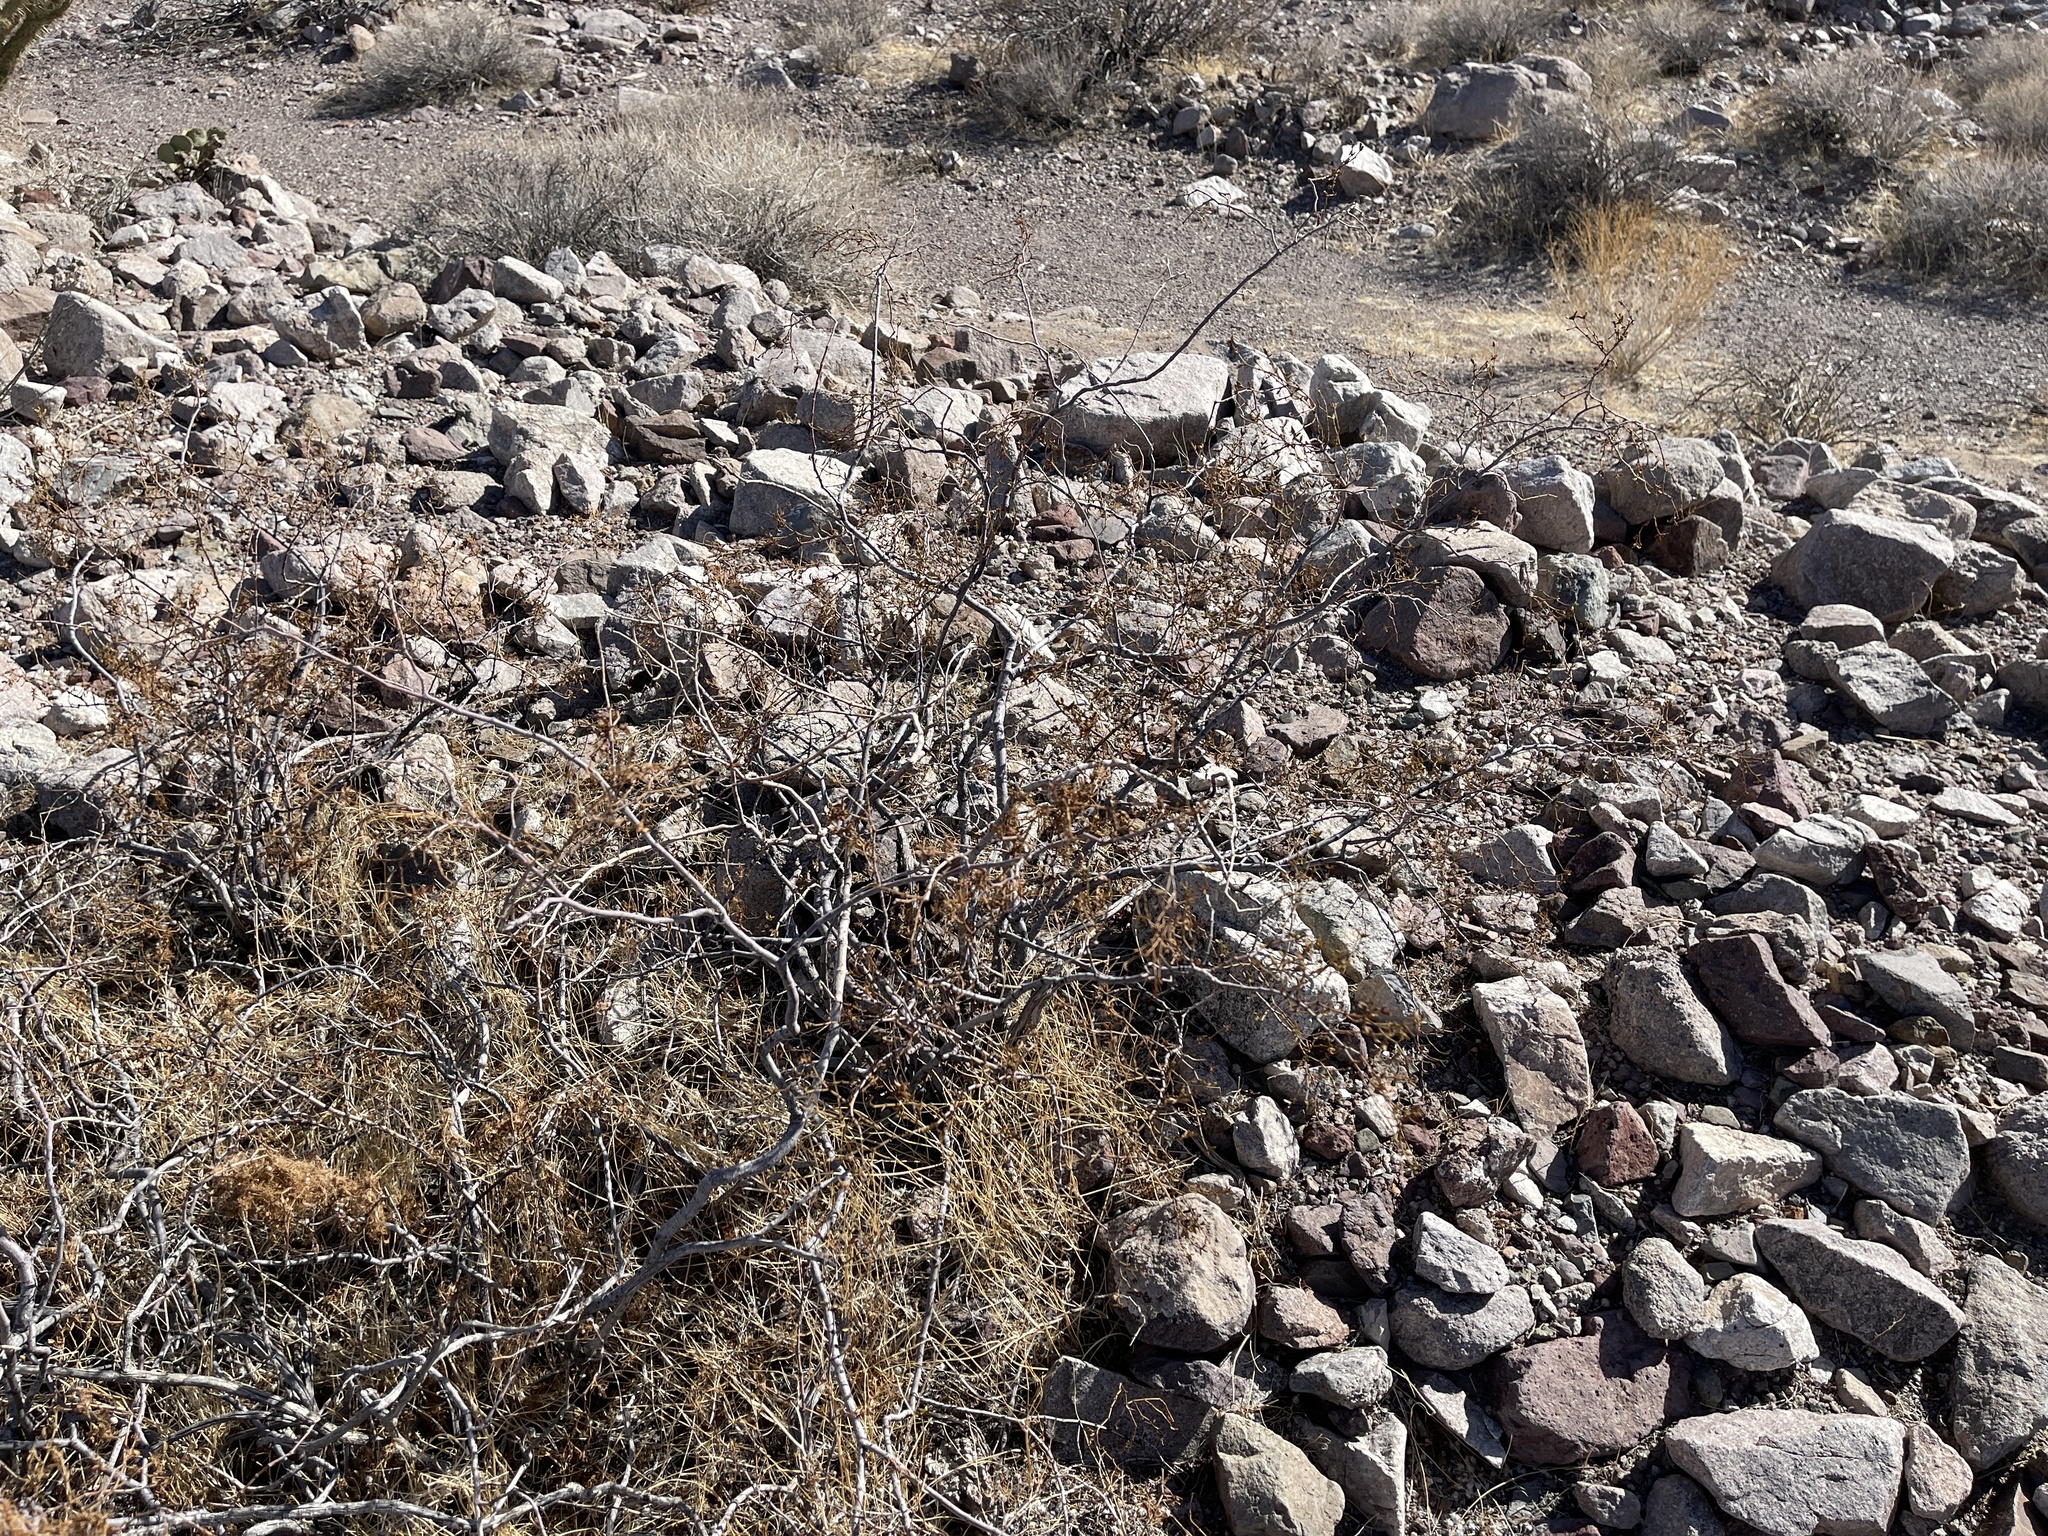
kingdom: Plantae
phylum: Tracheophyta
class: Magnoliopsida
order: Zygophyllales
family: Zygophyllaceae
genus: Larrea
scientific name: Larrea tridentata
